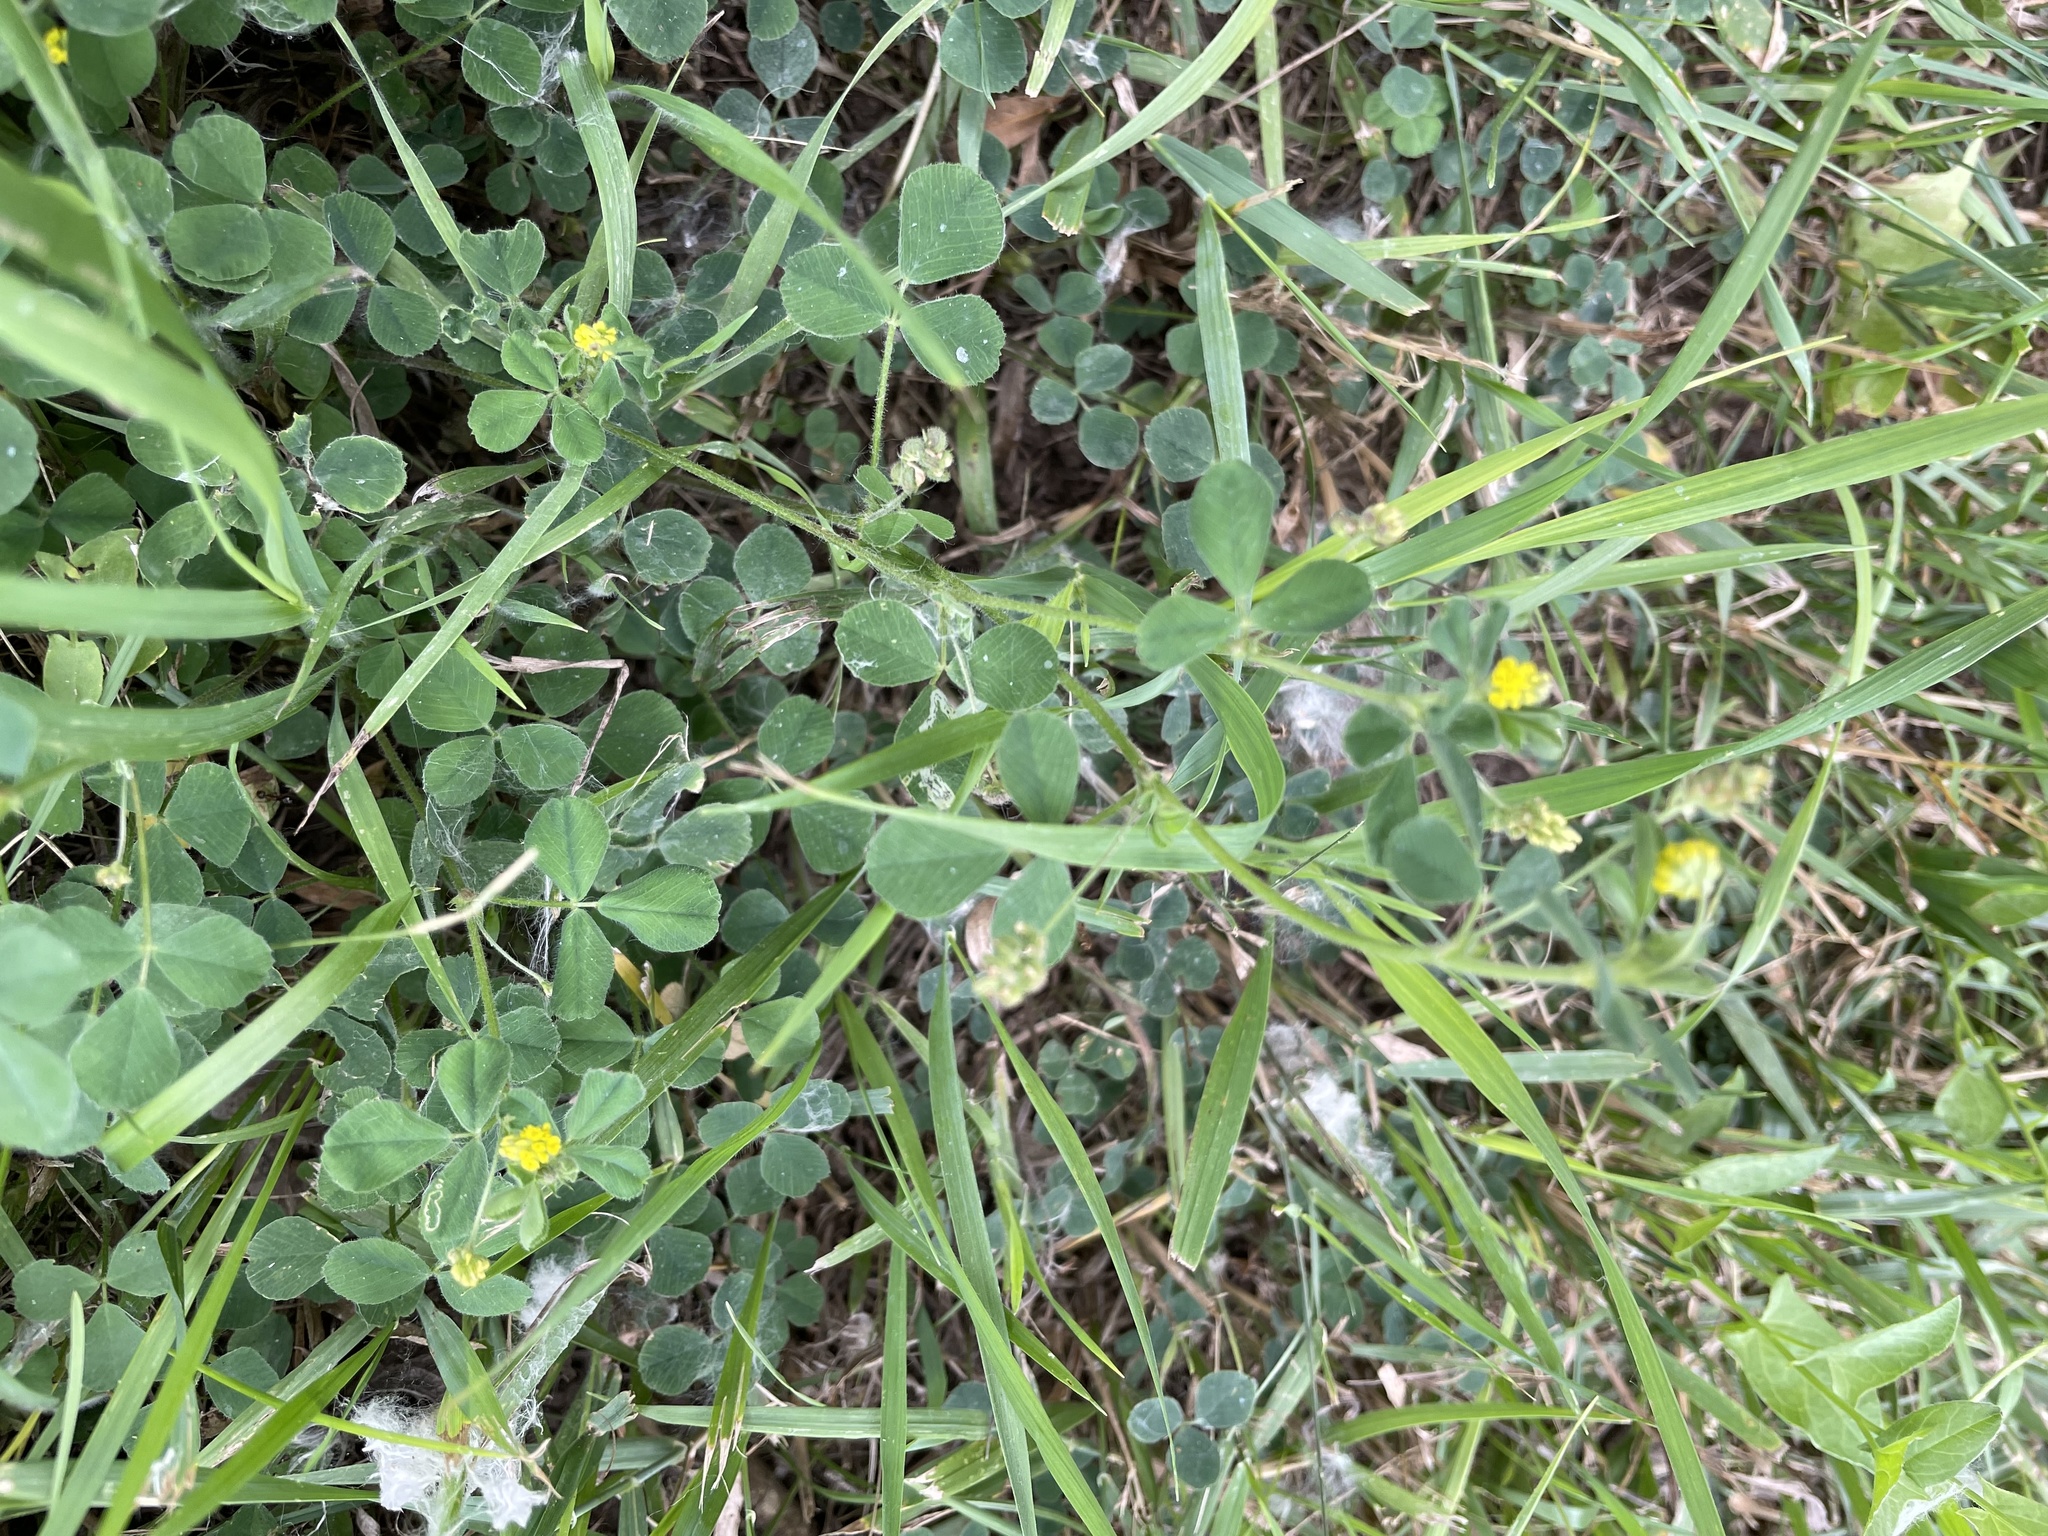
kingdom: Plantae
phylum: Tracheophyta
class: Magnoliopsida
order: Fabales
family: Fabaceae
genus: Medicago
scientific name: Medicago lupulina
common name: Black medick
